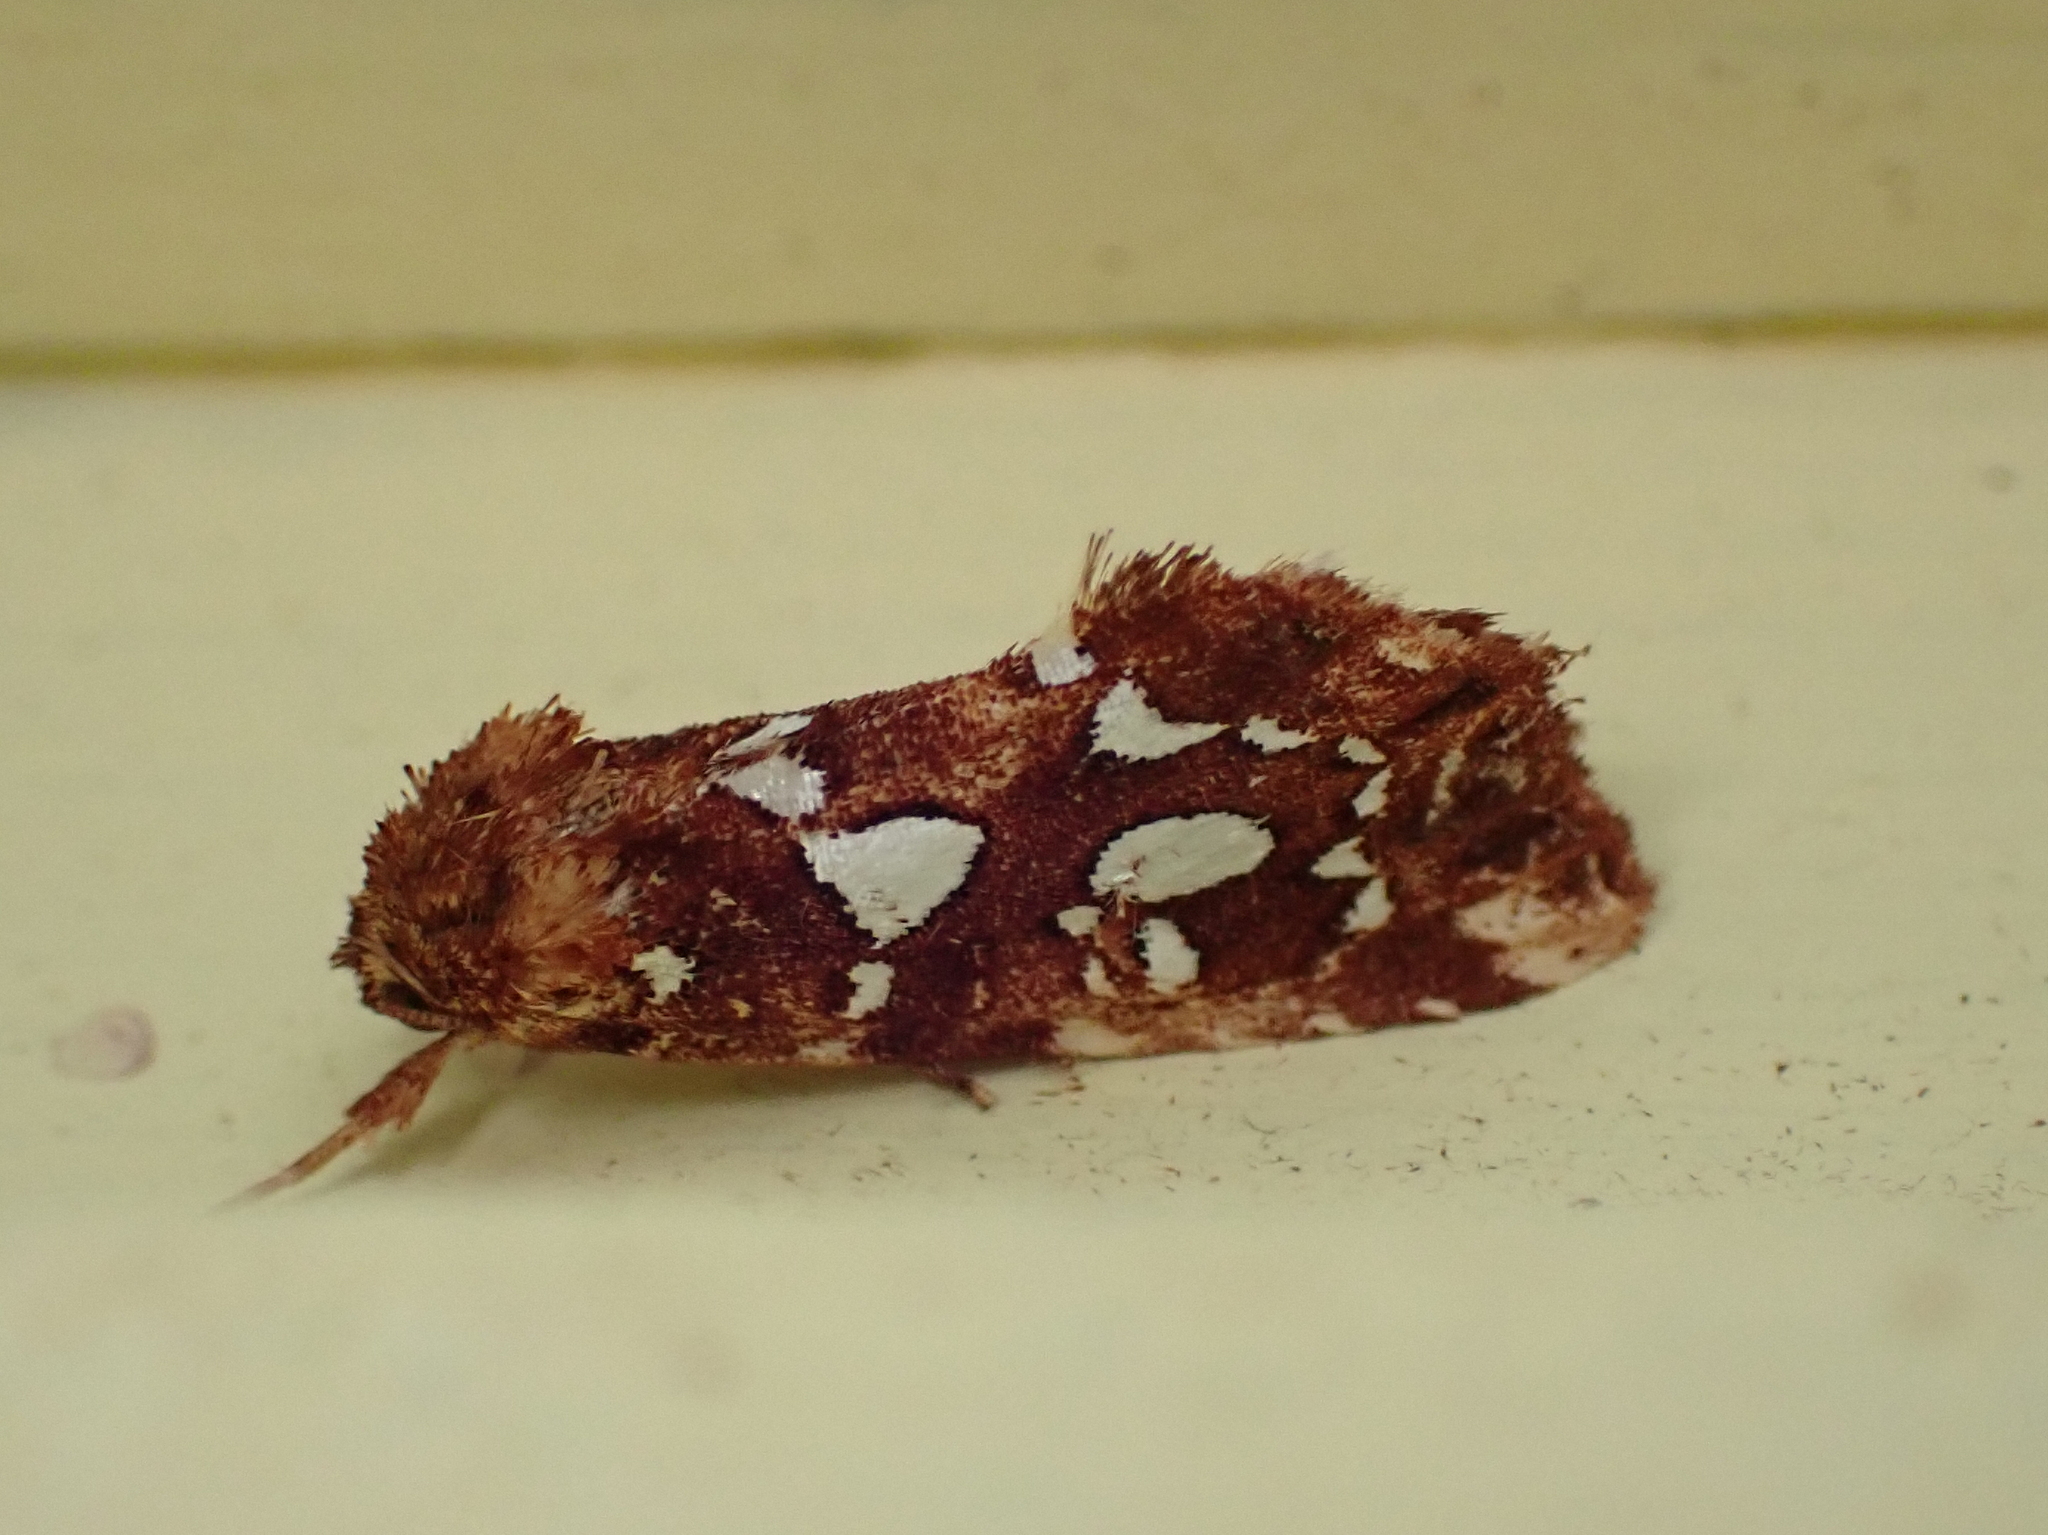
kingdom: Animalia
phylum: Arthropoda
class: Insecta
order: Lepidoptera
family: Noctuidae
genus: Callopistria
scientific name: Callopistria cordata
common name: Silver-spotted fern moth
